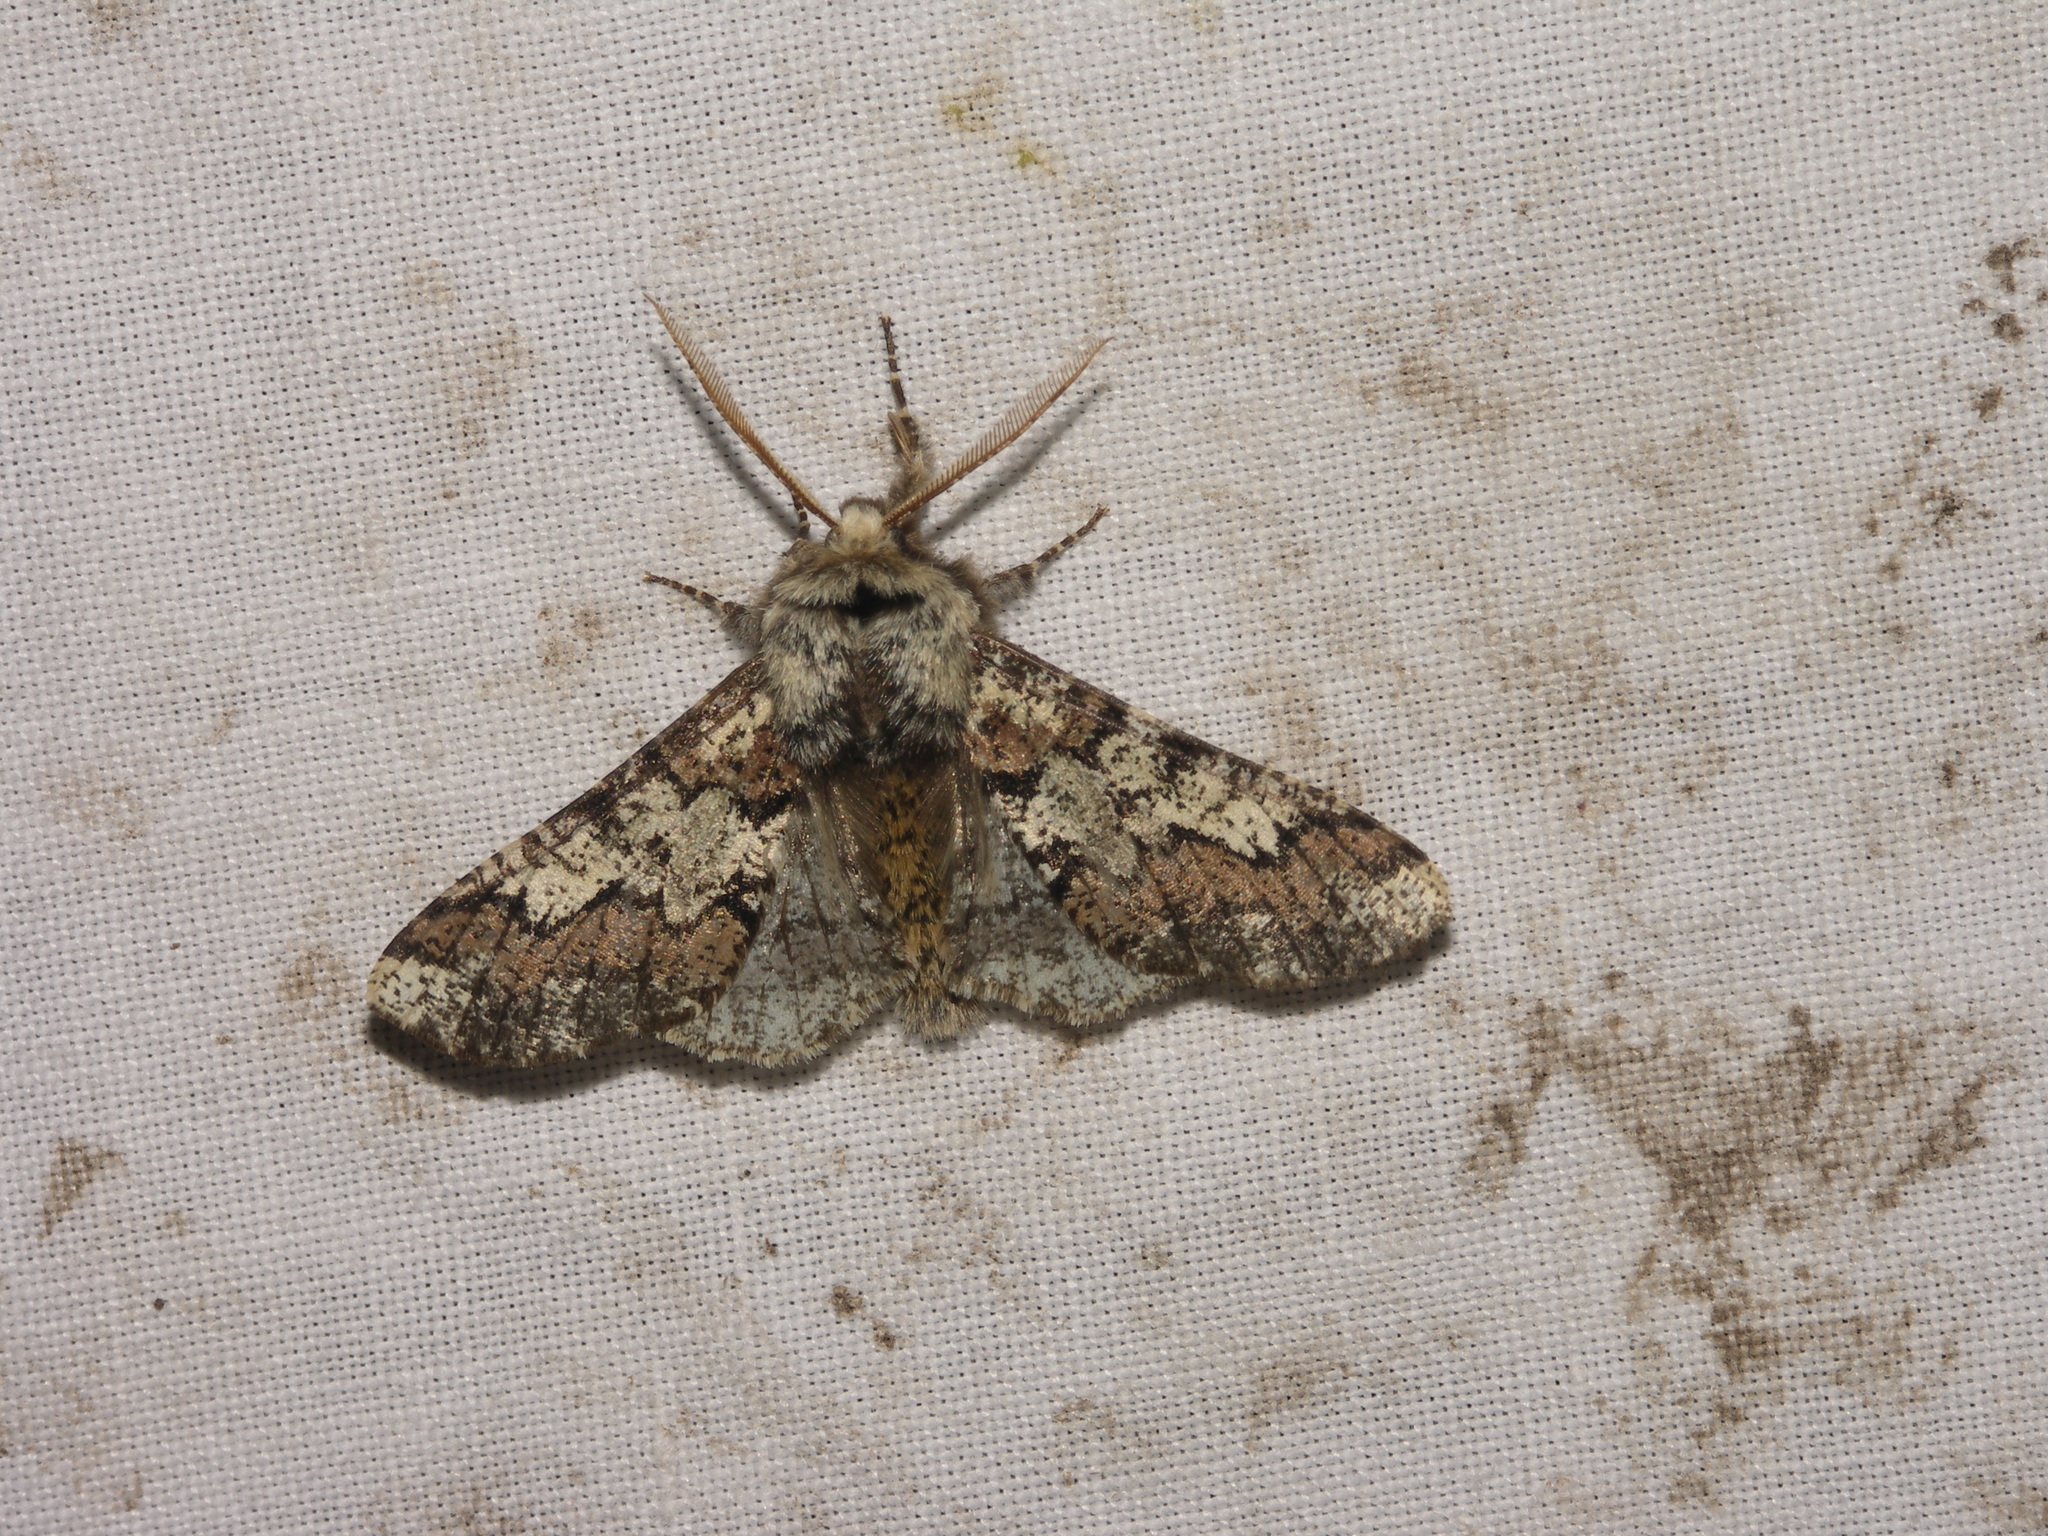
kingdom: Animalia
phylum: Arthropoda
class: Insecta
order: Lepidoptera
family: Geometridae
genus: Biston
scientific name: Biston strataria
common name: Oak beauty
